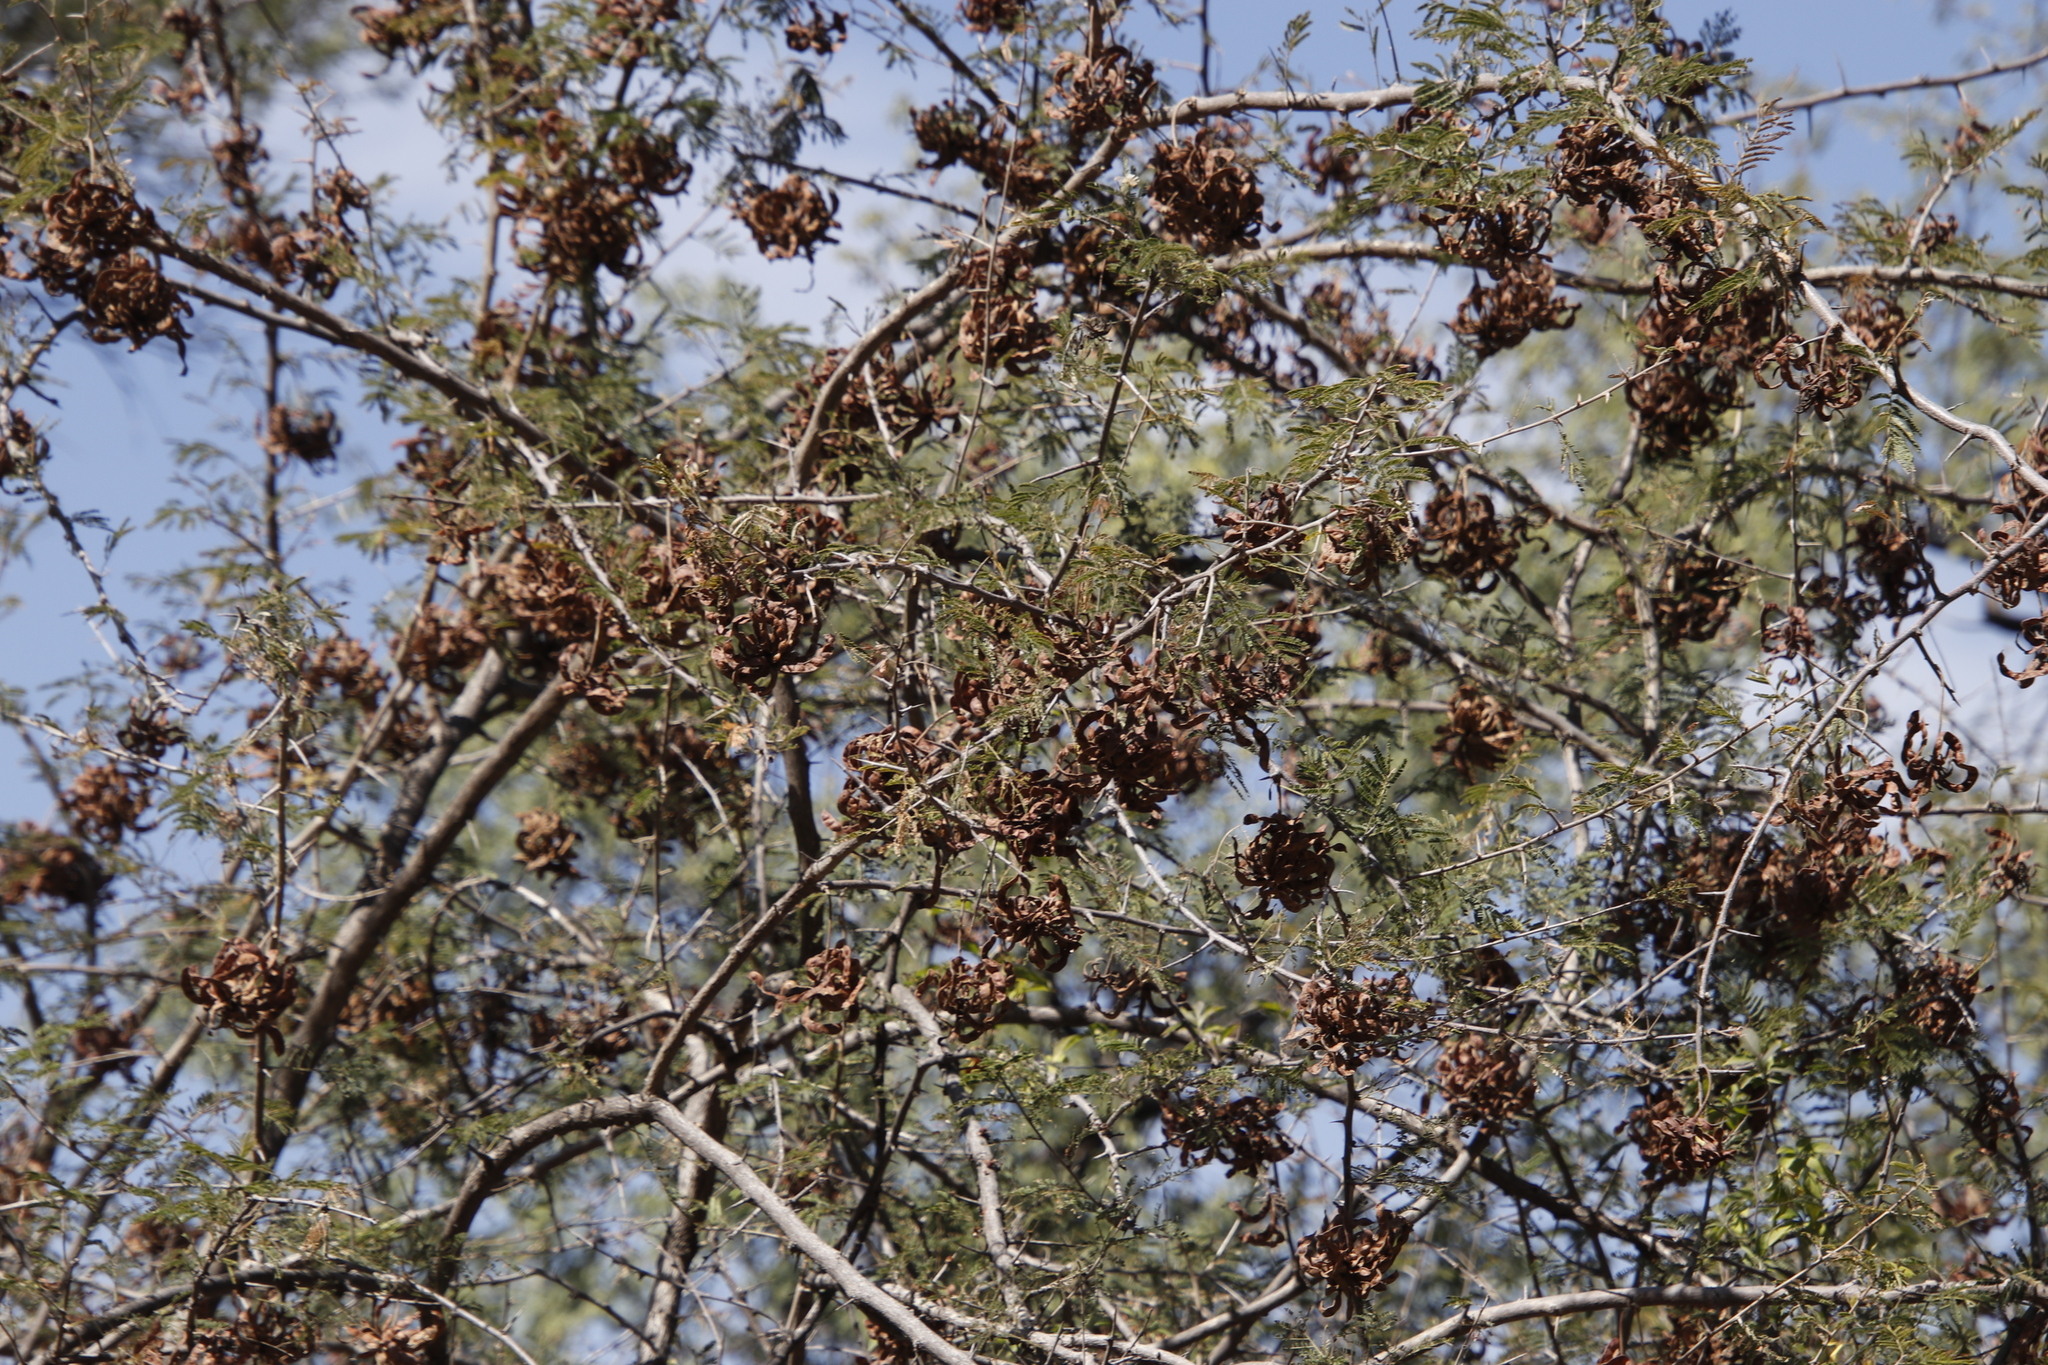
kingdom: Plantae
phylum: Tracheophyta
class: Magnoliopsida
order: Fabales
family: Fabaceae
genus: Dichrostachys
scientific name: Dichrostachys cinerea
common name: Sicklebush
